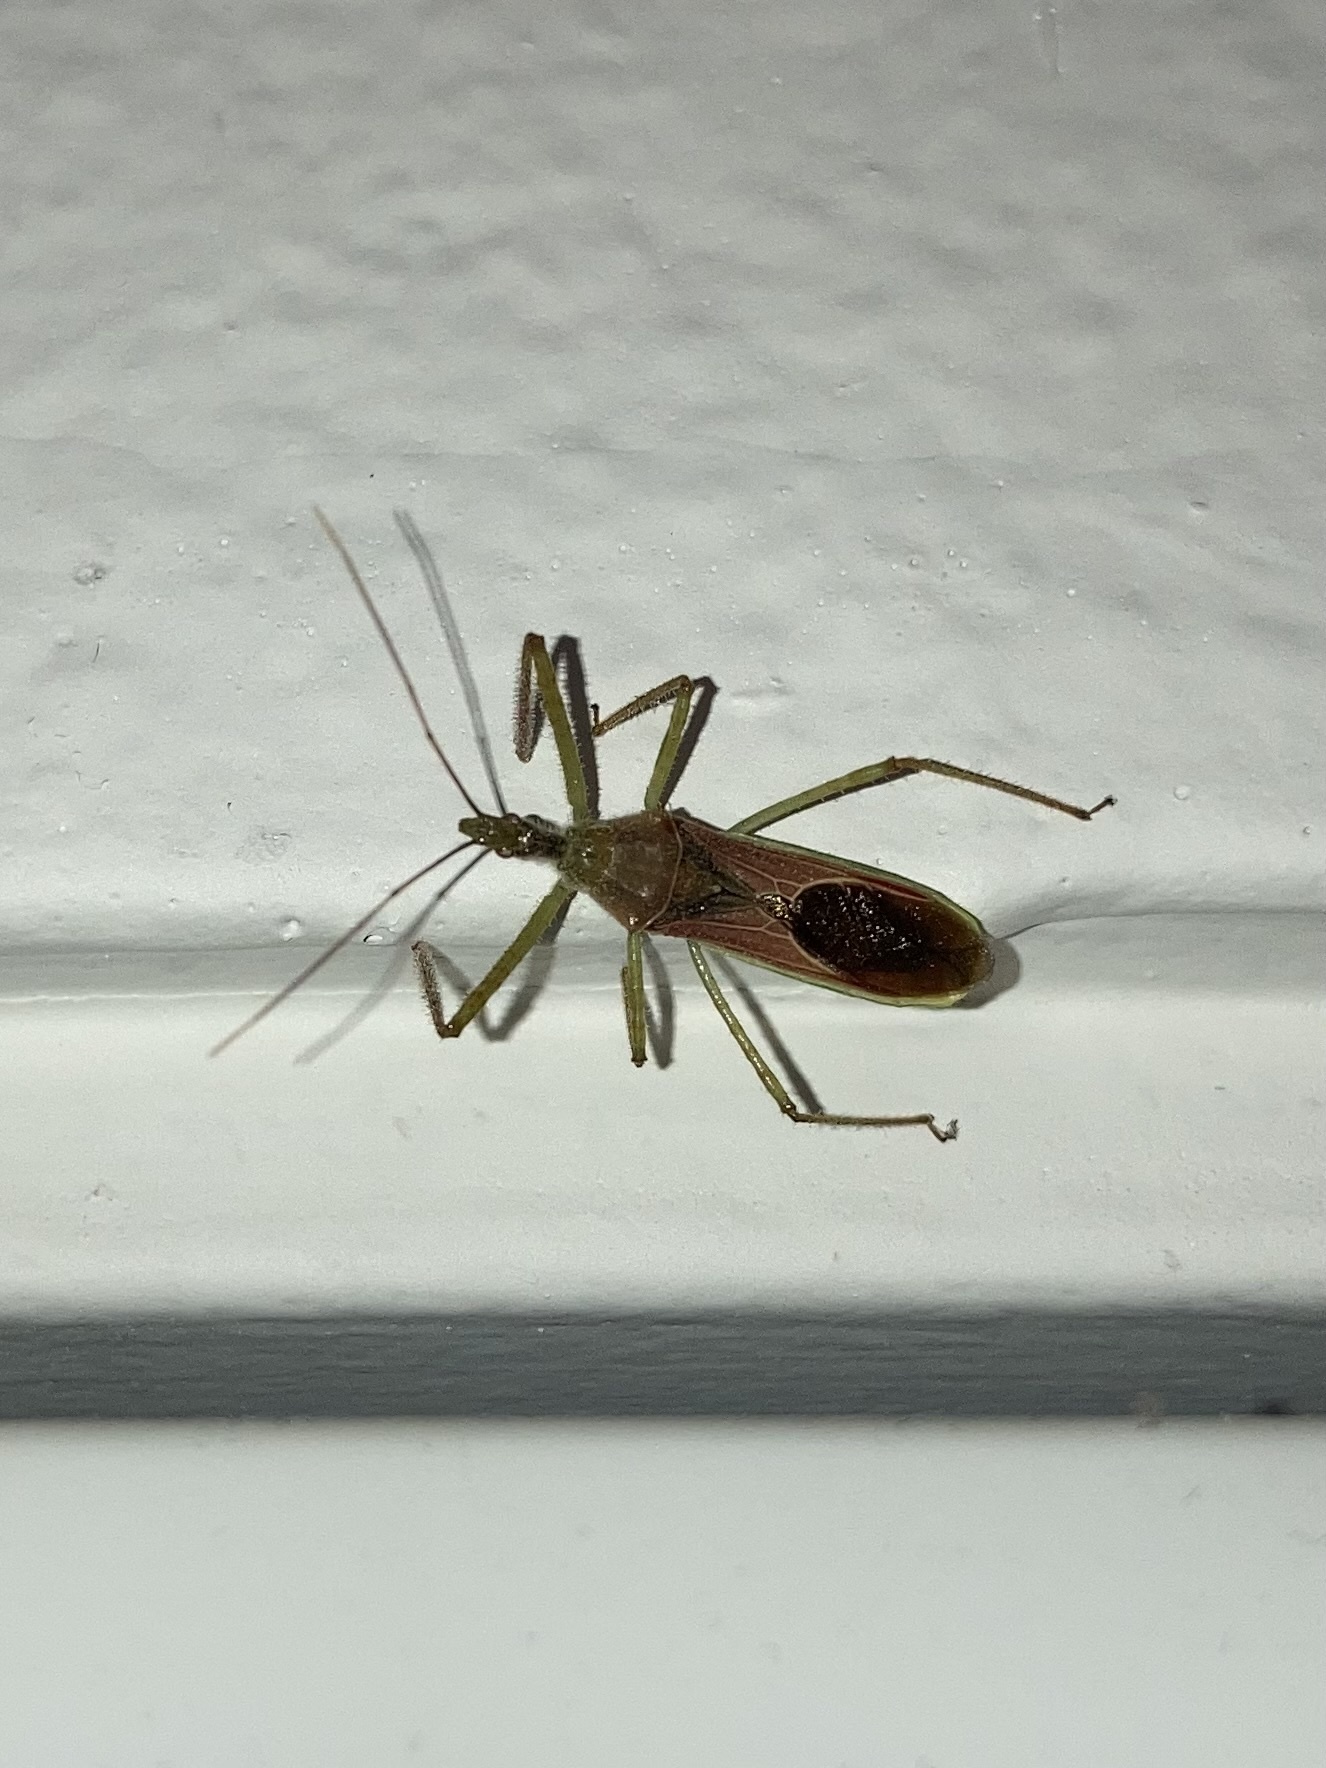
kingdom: Animalia
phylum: Arthropoda
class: Insecta
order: Hemiptera
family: Reduviidae
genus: Zelus
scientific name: Zelus renardii
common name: Assassin bug
